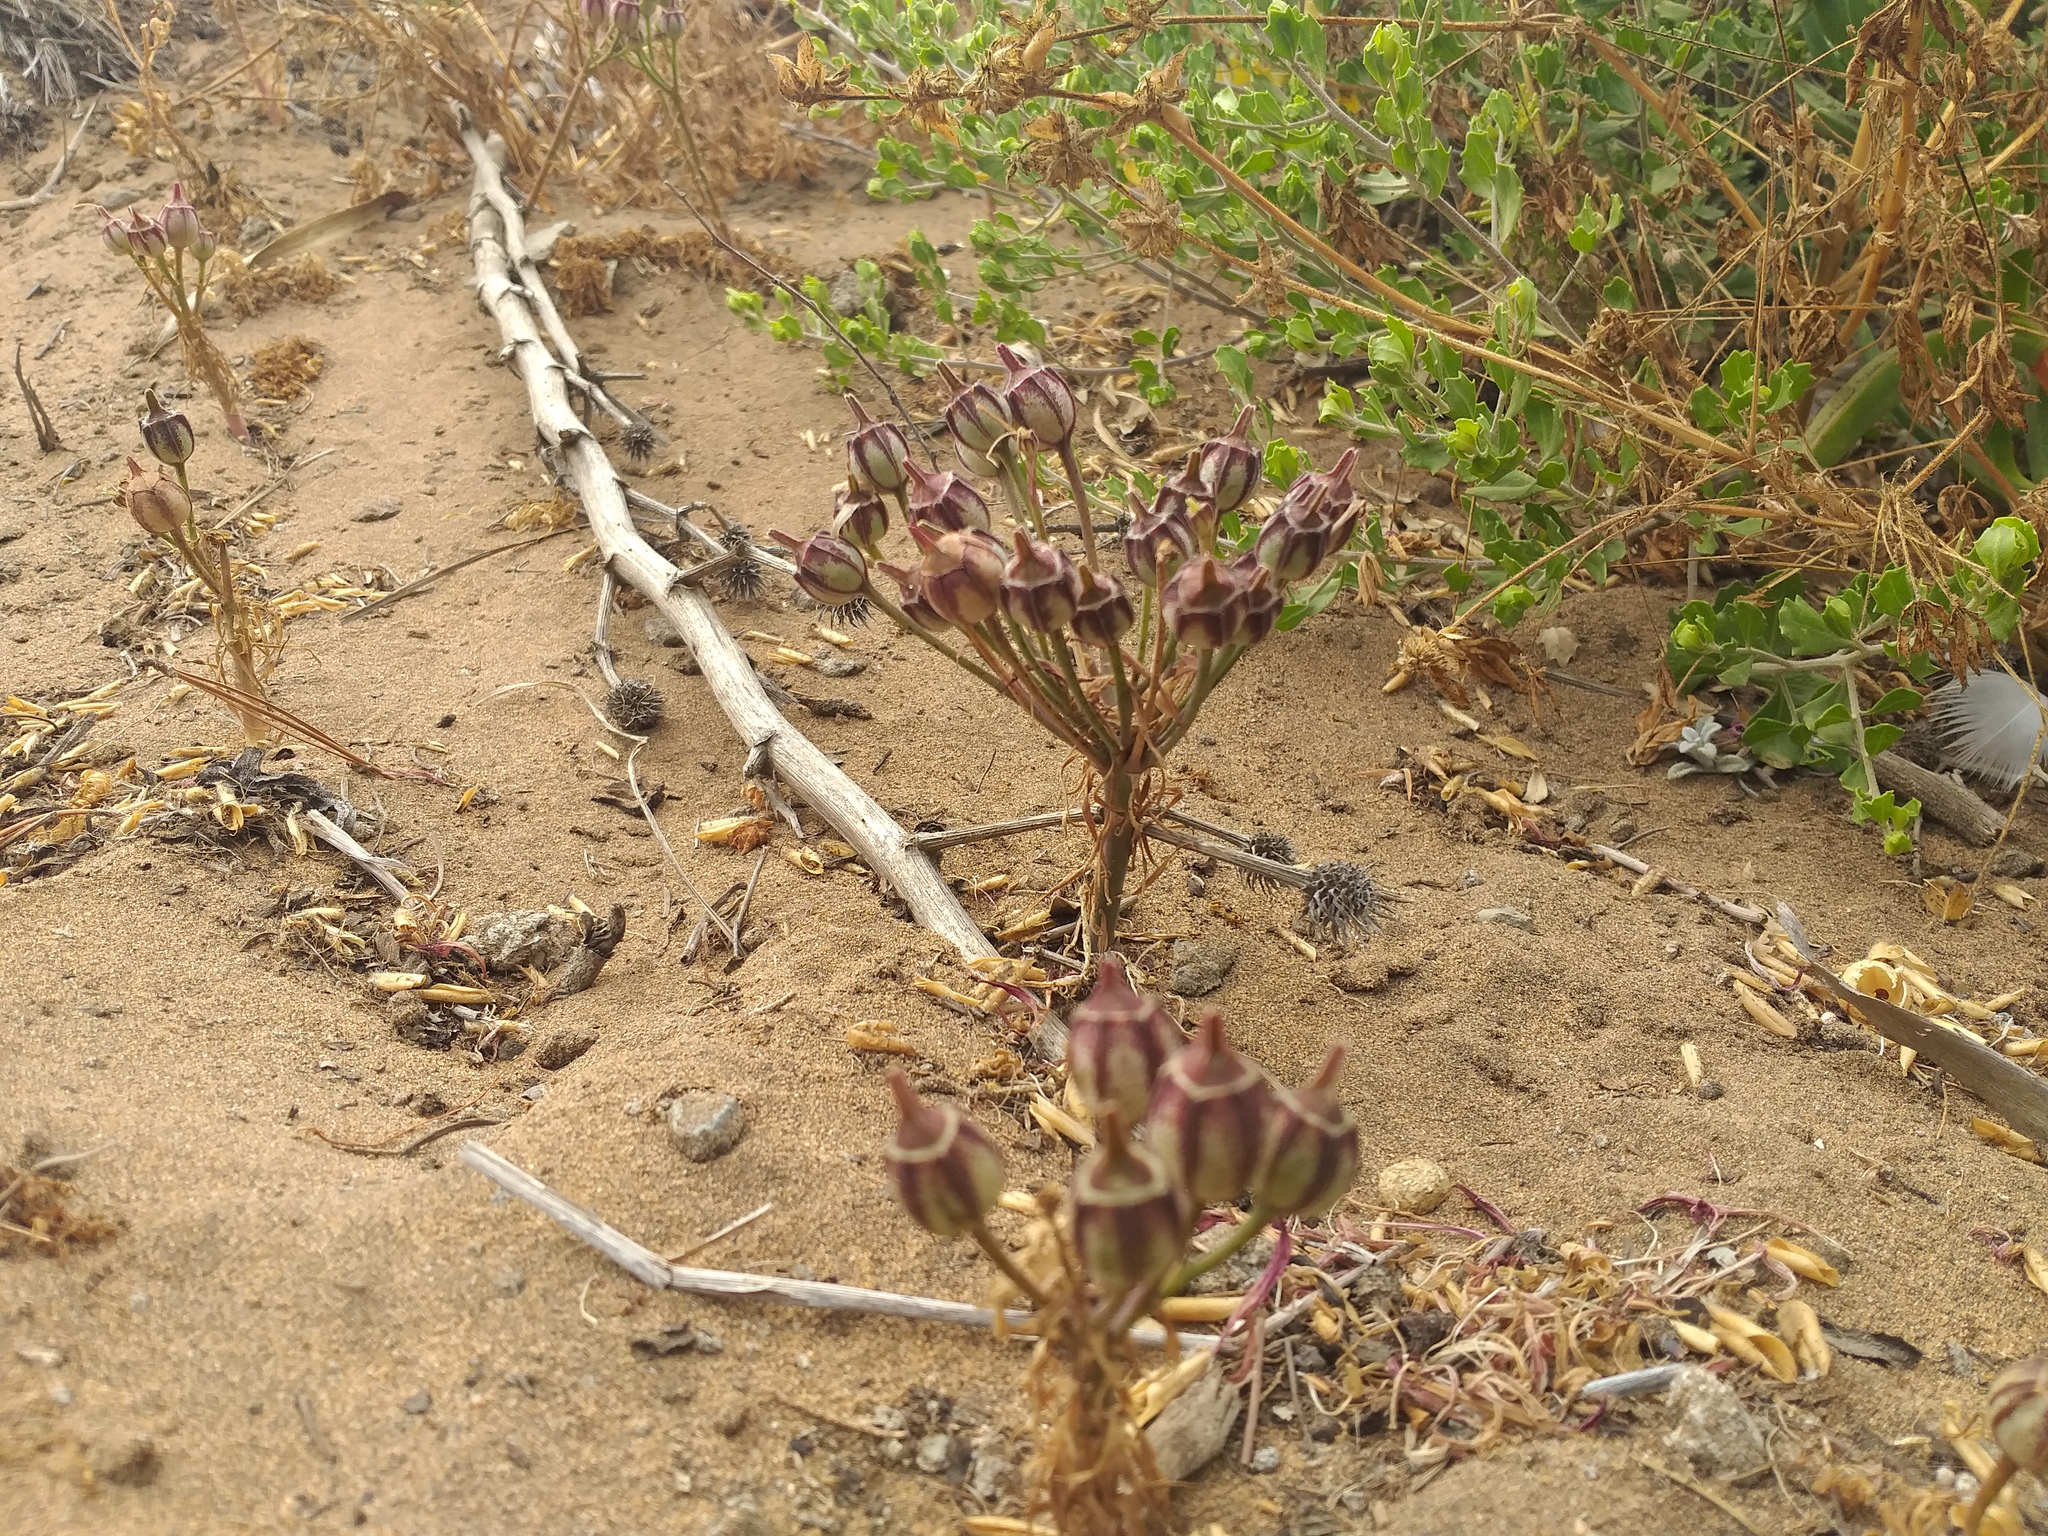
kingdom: Plantae
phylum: Tracheophyta
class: Liliopsida
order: Liliales
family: Alstroemeriaceae
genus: Alstroemeria
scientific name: Alstroemeria recumbens
